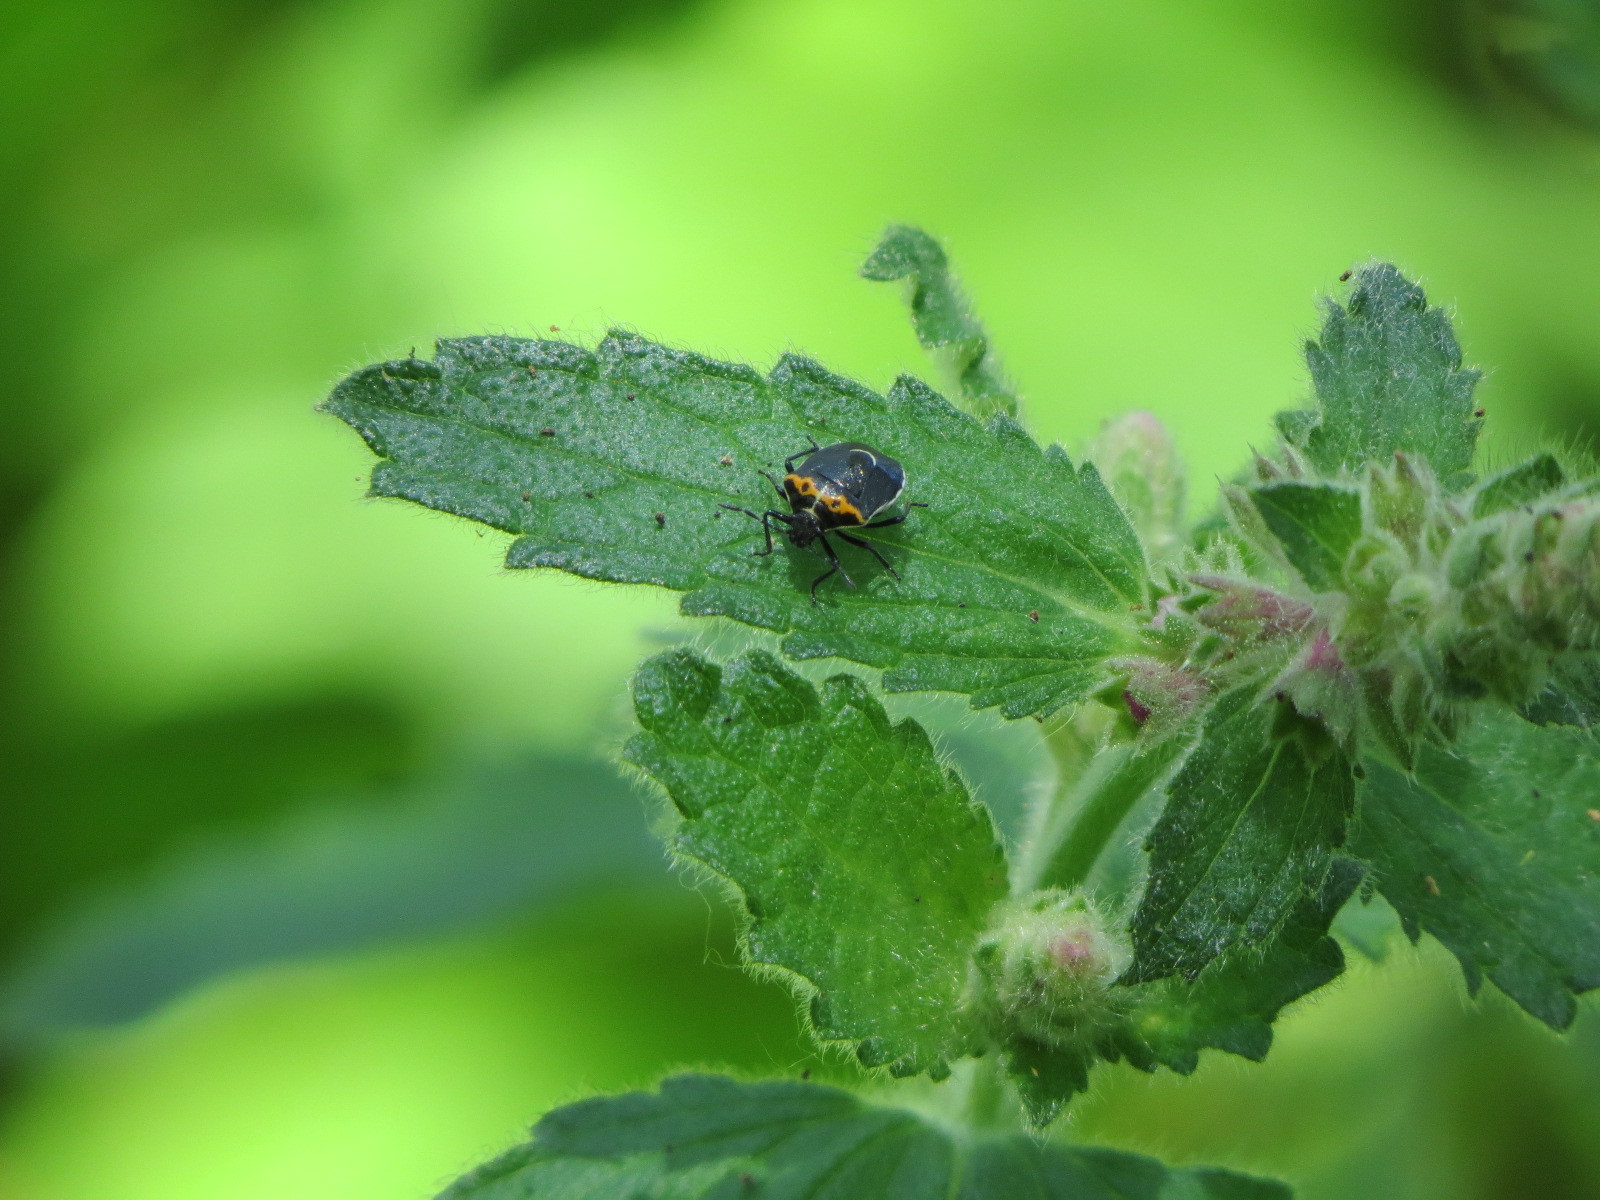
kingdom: Animalia
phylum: Arthropoda
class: Insecta
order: Hemiptera
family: Pentatomidae
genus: Cosmopepla
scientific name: Cosmopepla conspicillaris
